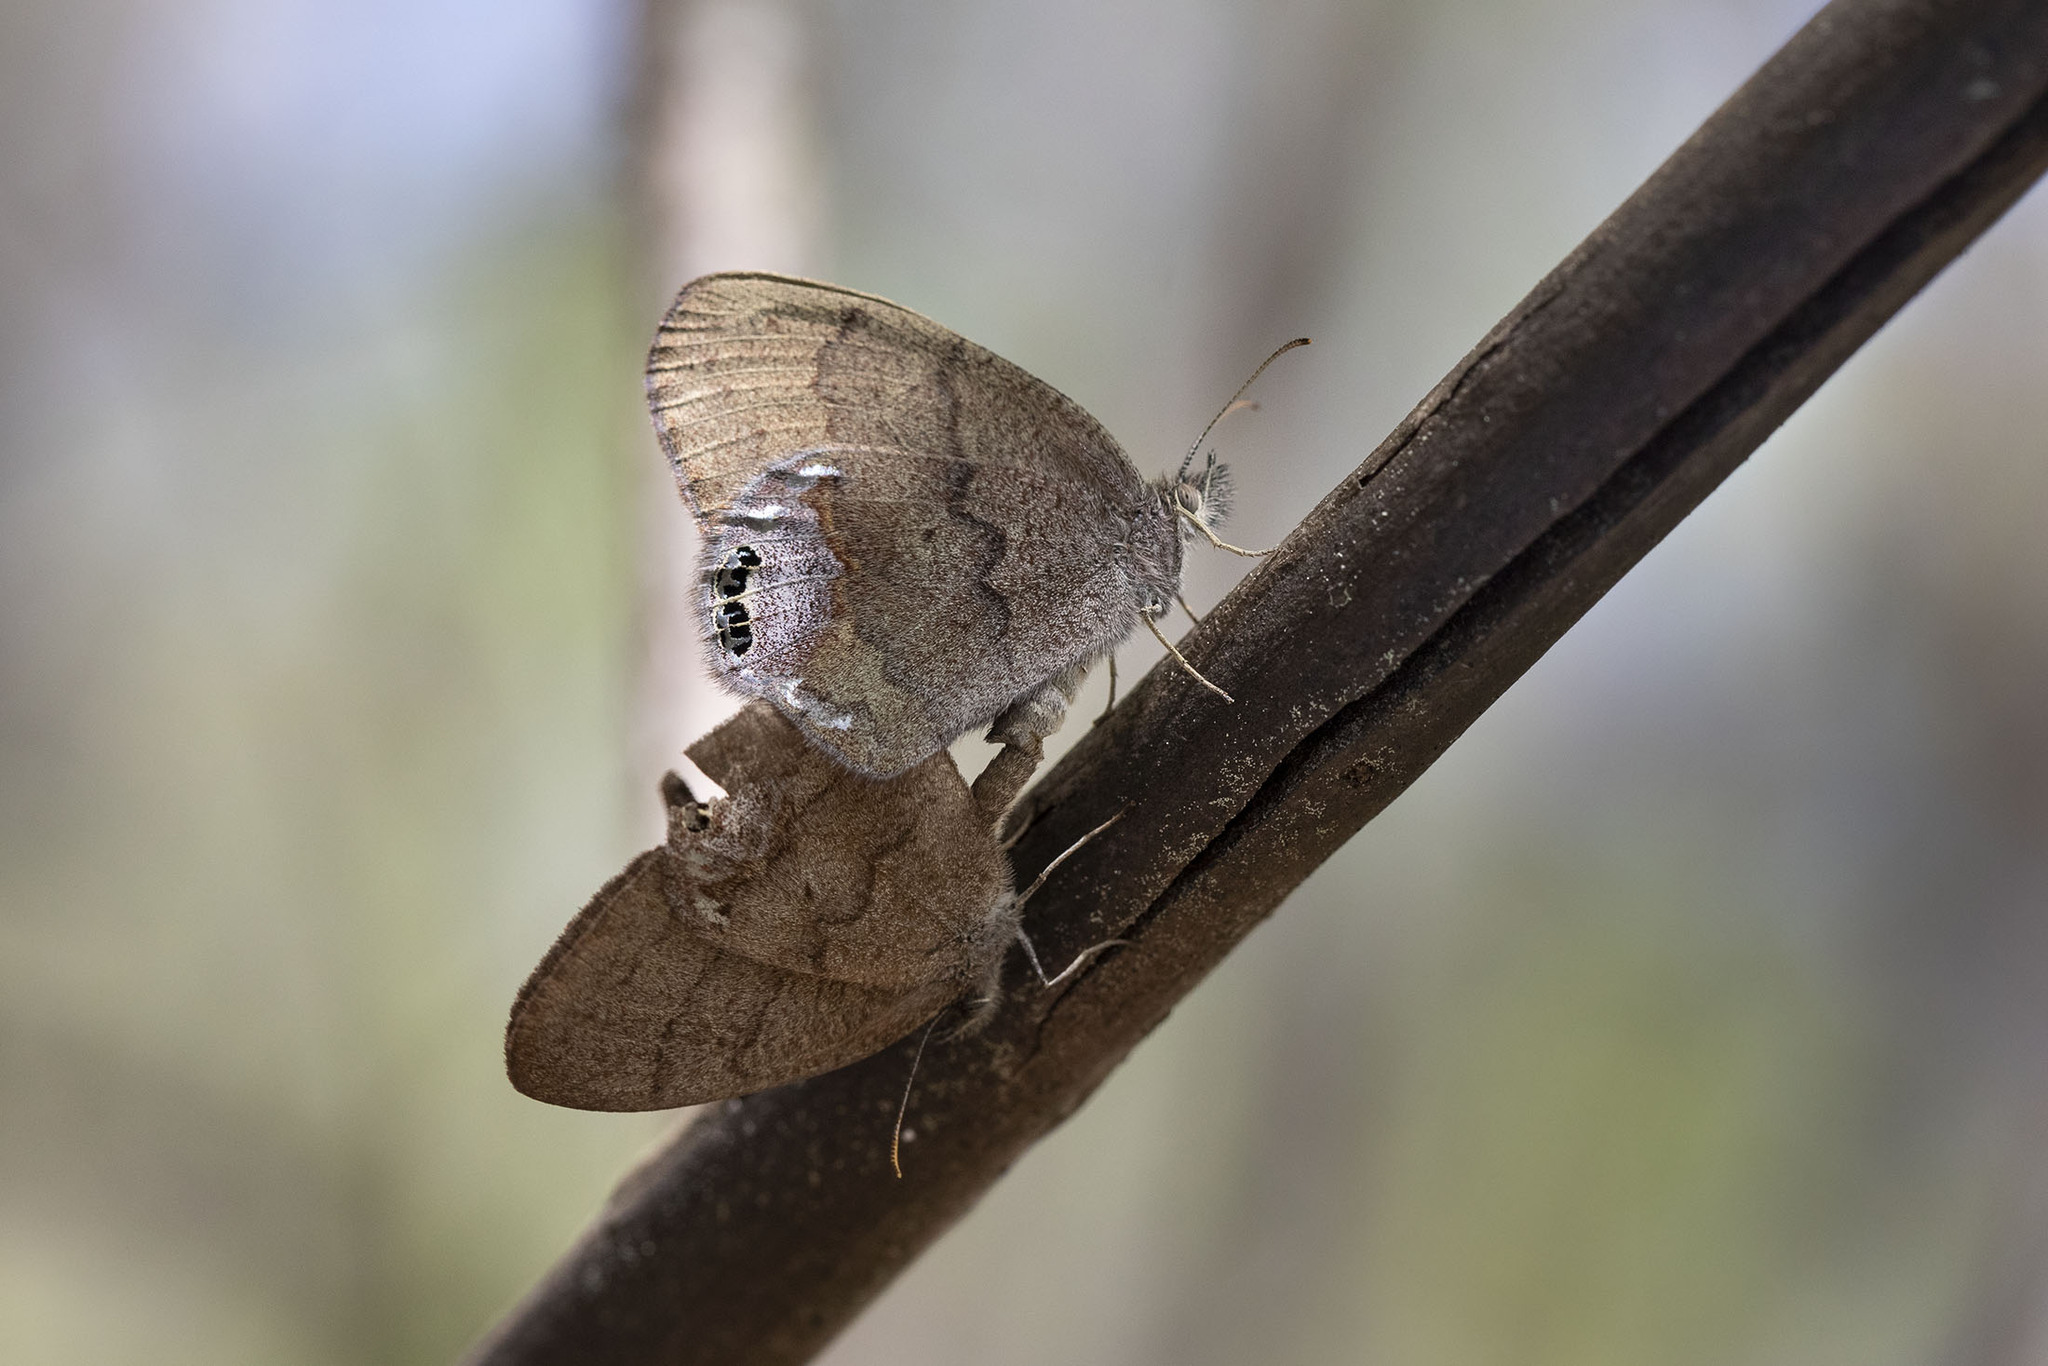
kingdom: Animalia
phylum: Arthropoda
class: Insecta
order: Lepidoptera
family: Nymphalidae
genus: Euptychia
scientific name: Euptychia cornelius
